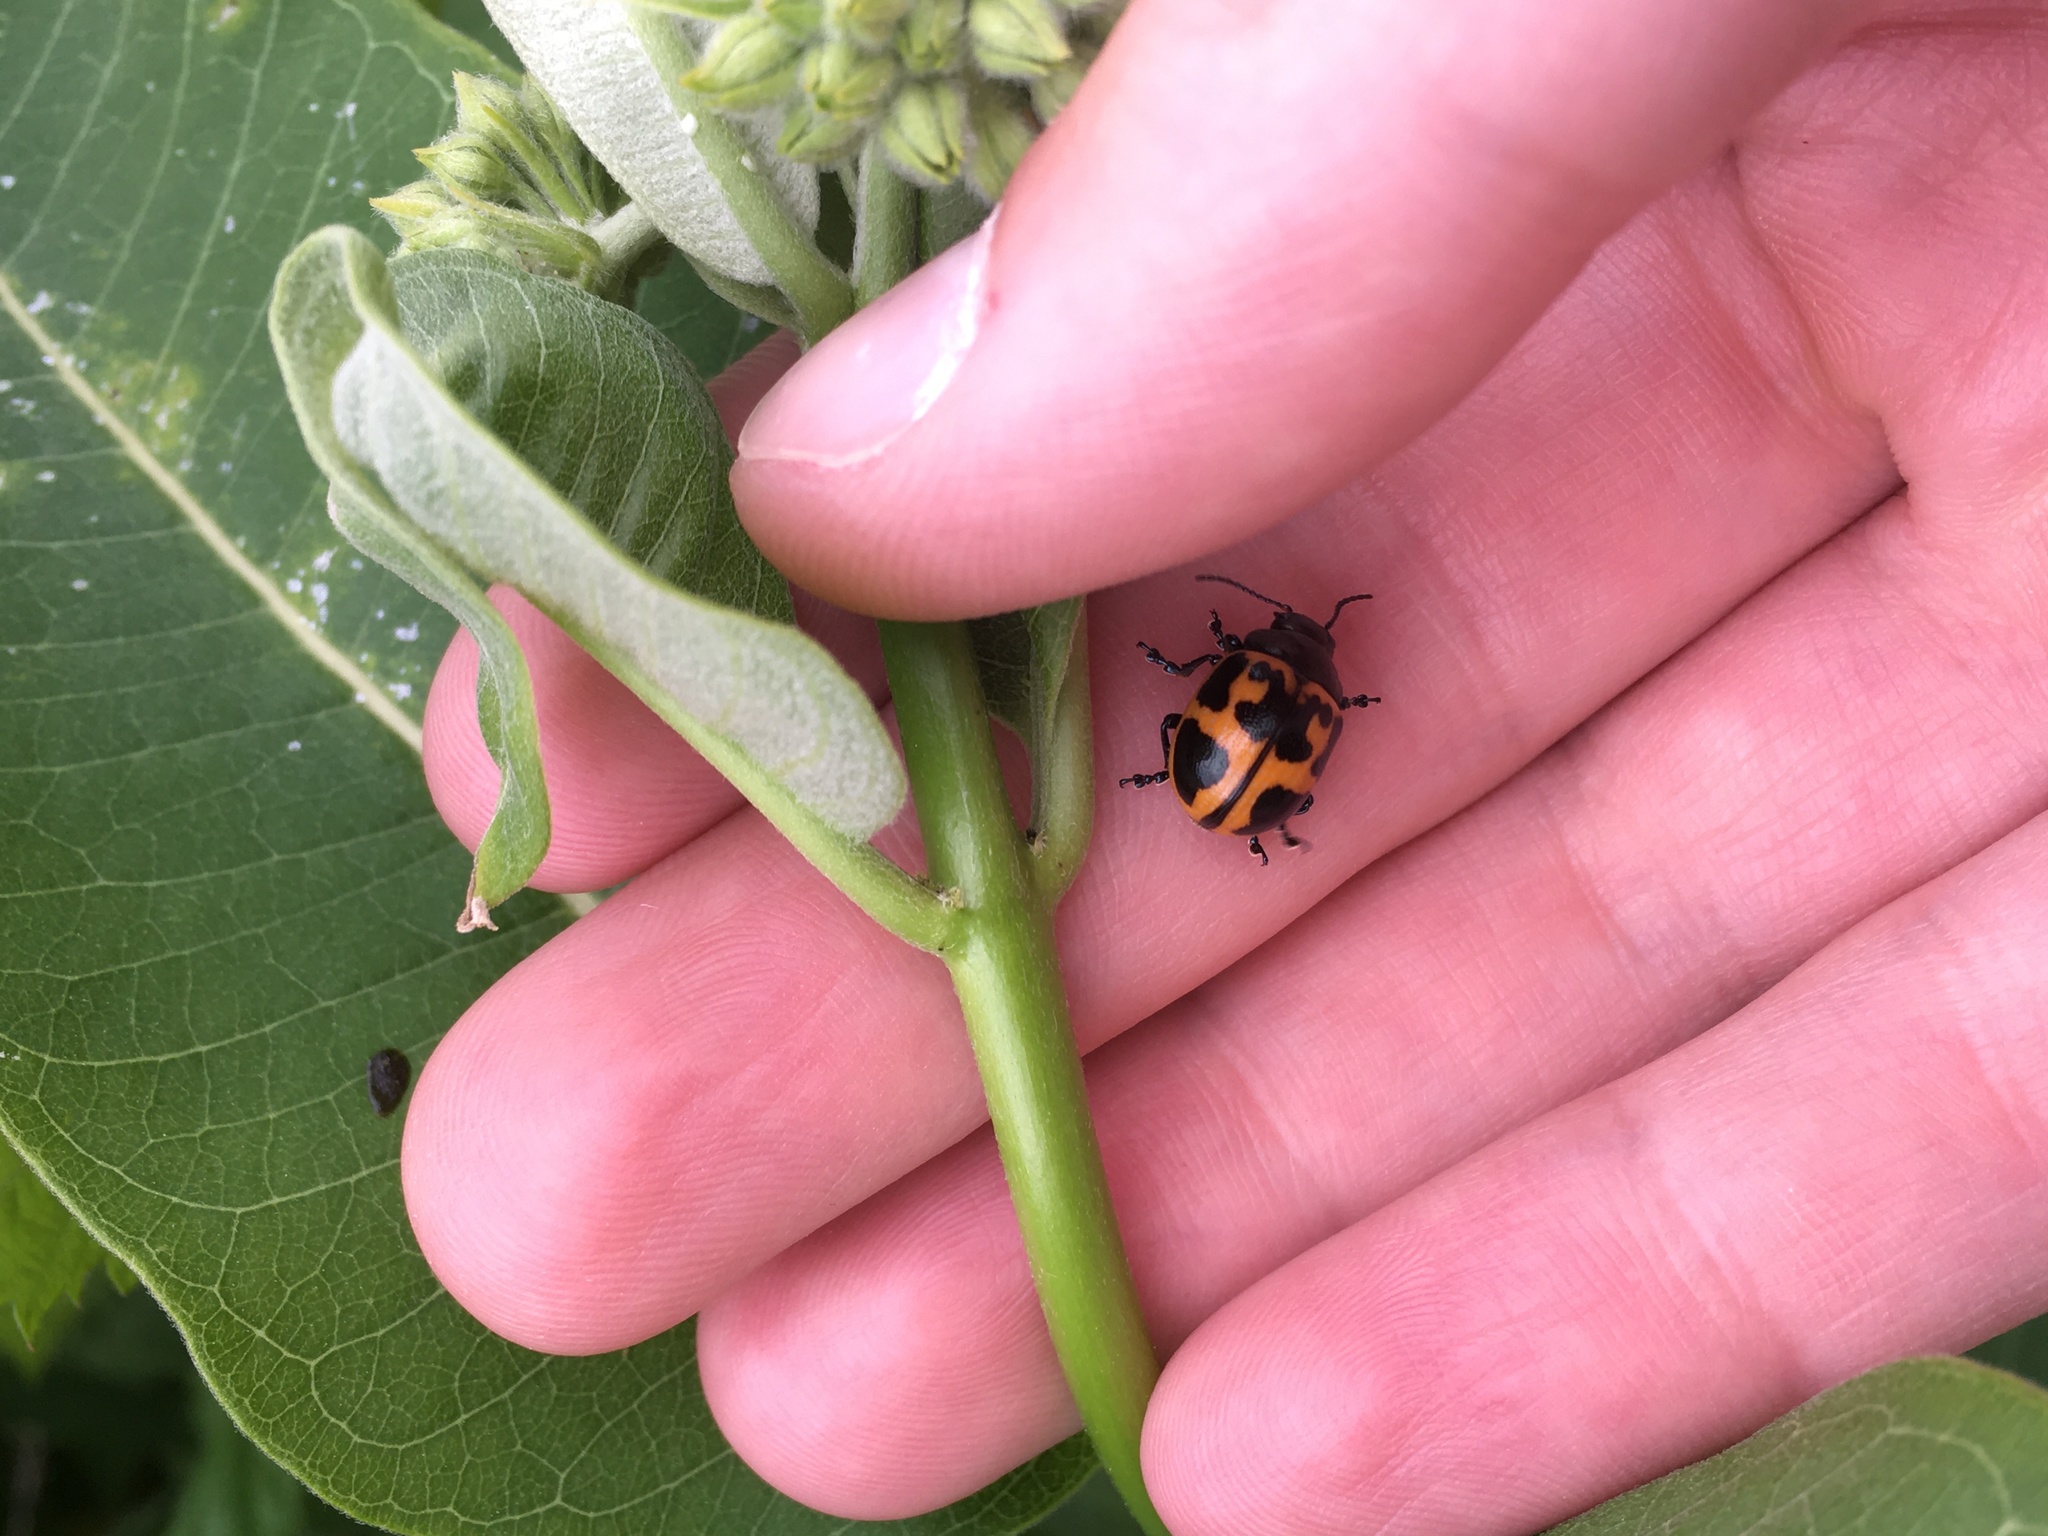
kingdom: Animalia
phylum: Arthropoda
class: Insecta
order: Coleoptera
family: Chrysomelidae
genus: Labidomera
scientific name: Labidomera clivicollis
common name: Swamp milkweed leaf beetle
